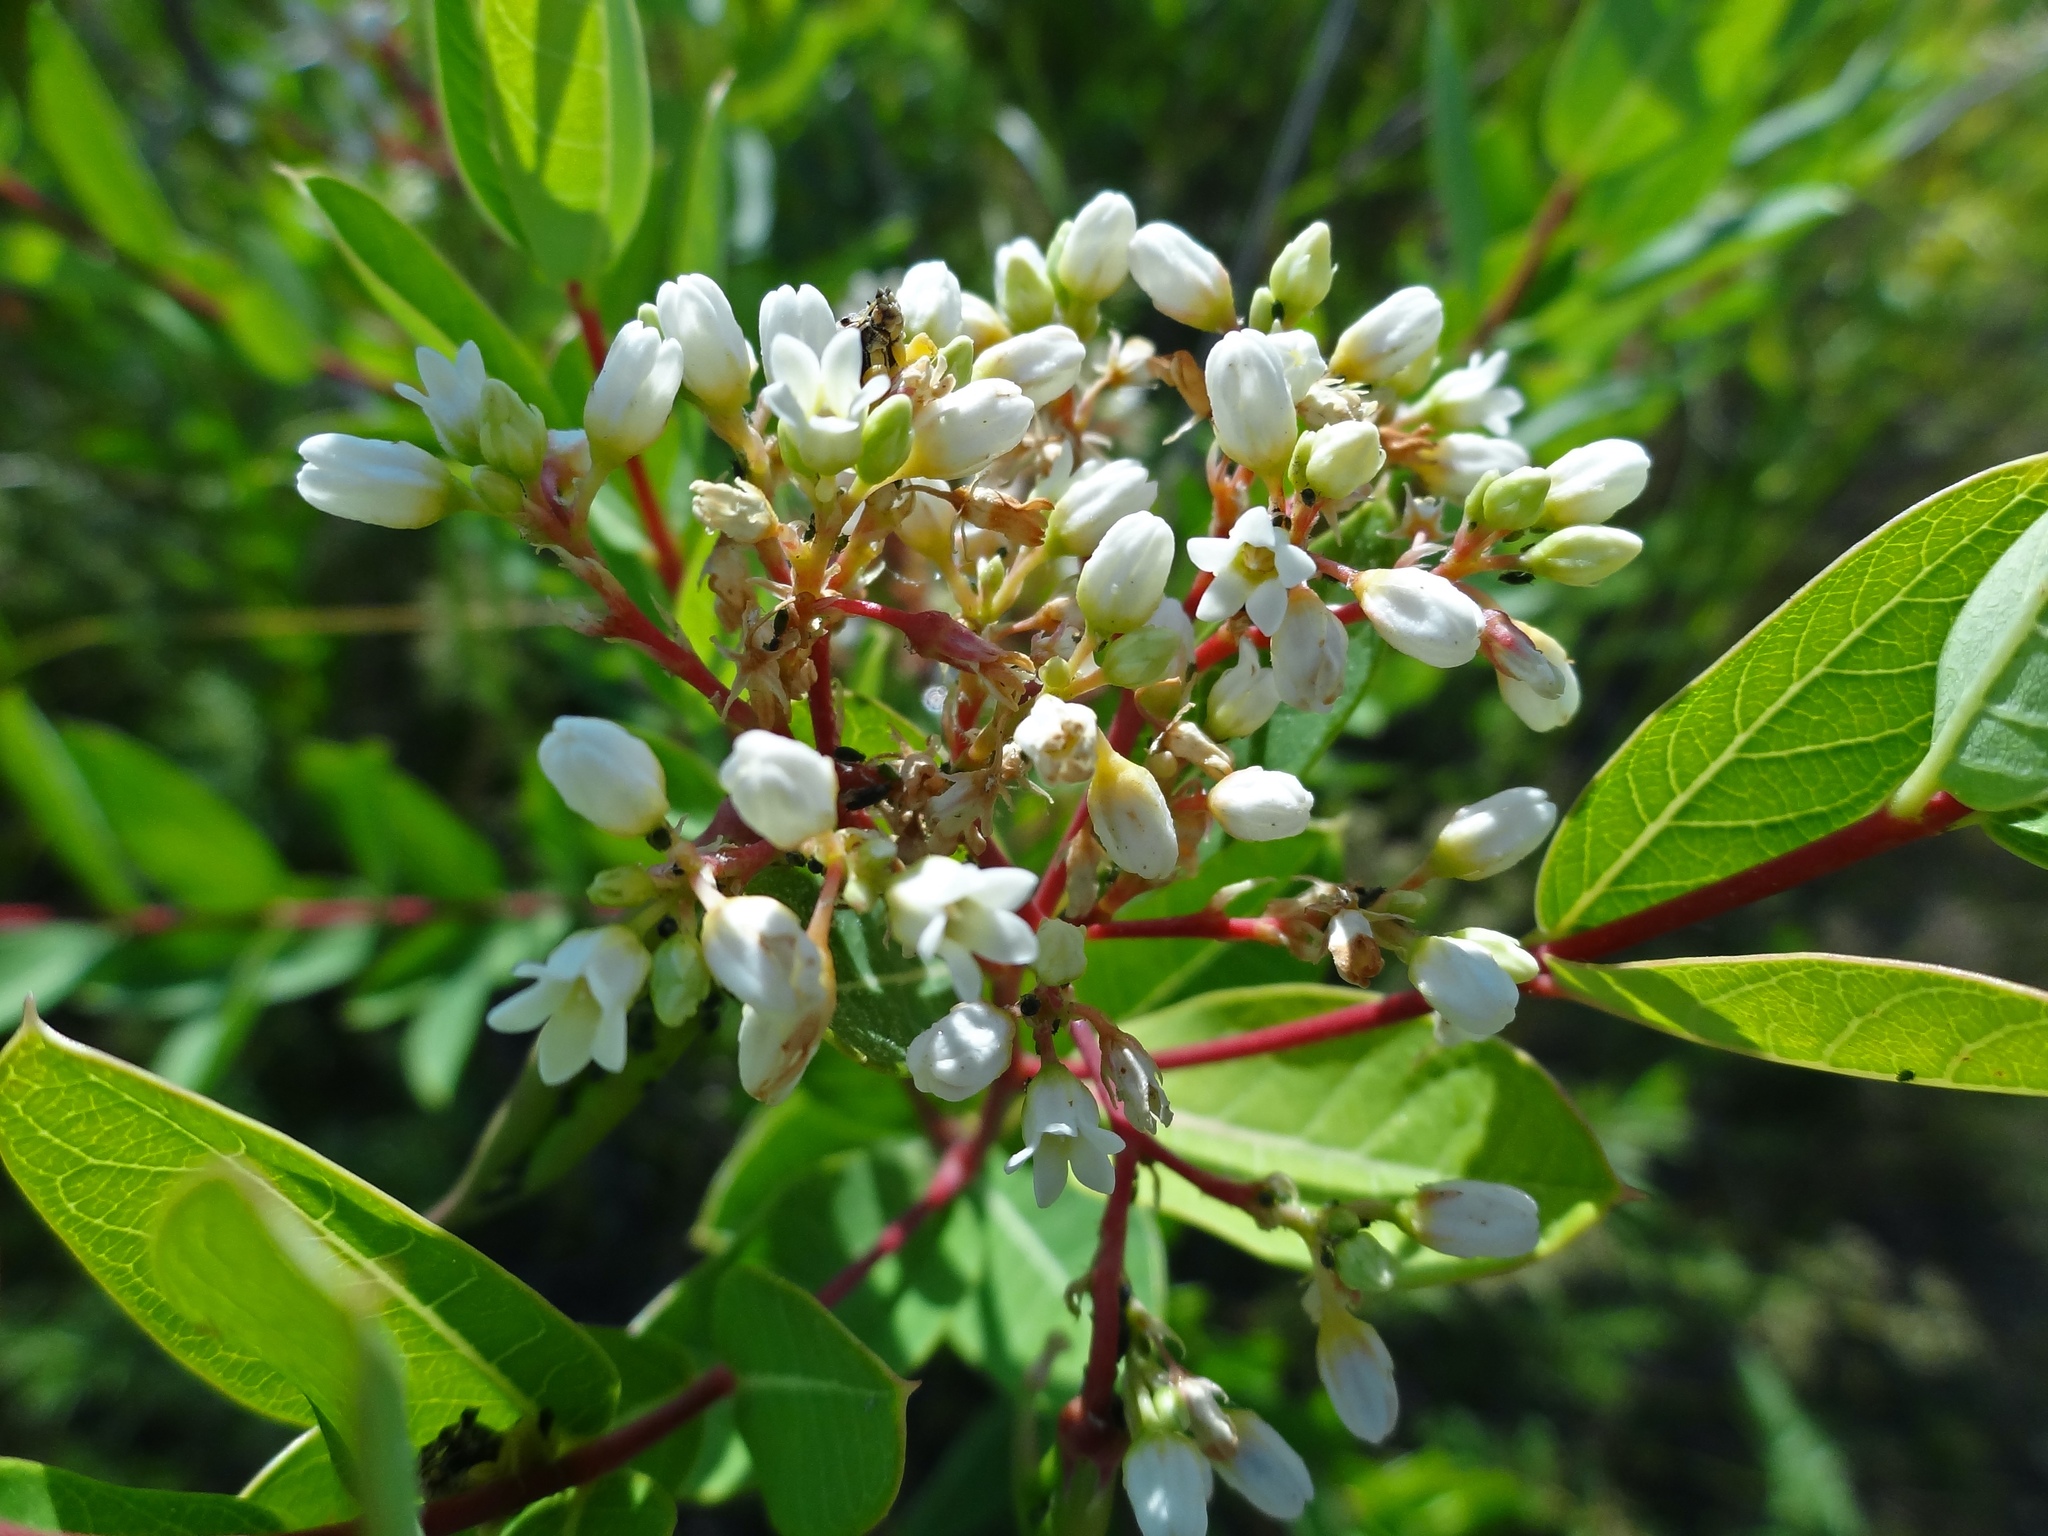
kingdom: Plantae
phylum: Tracheophyta
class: Magnoliopsida
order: Gentianales
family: Apocynaceae
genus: Apocynum
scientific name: Apocynum cannabinum
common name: Hemp dogbane
